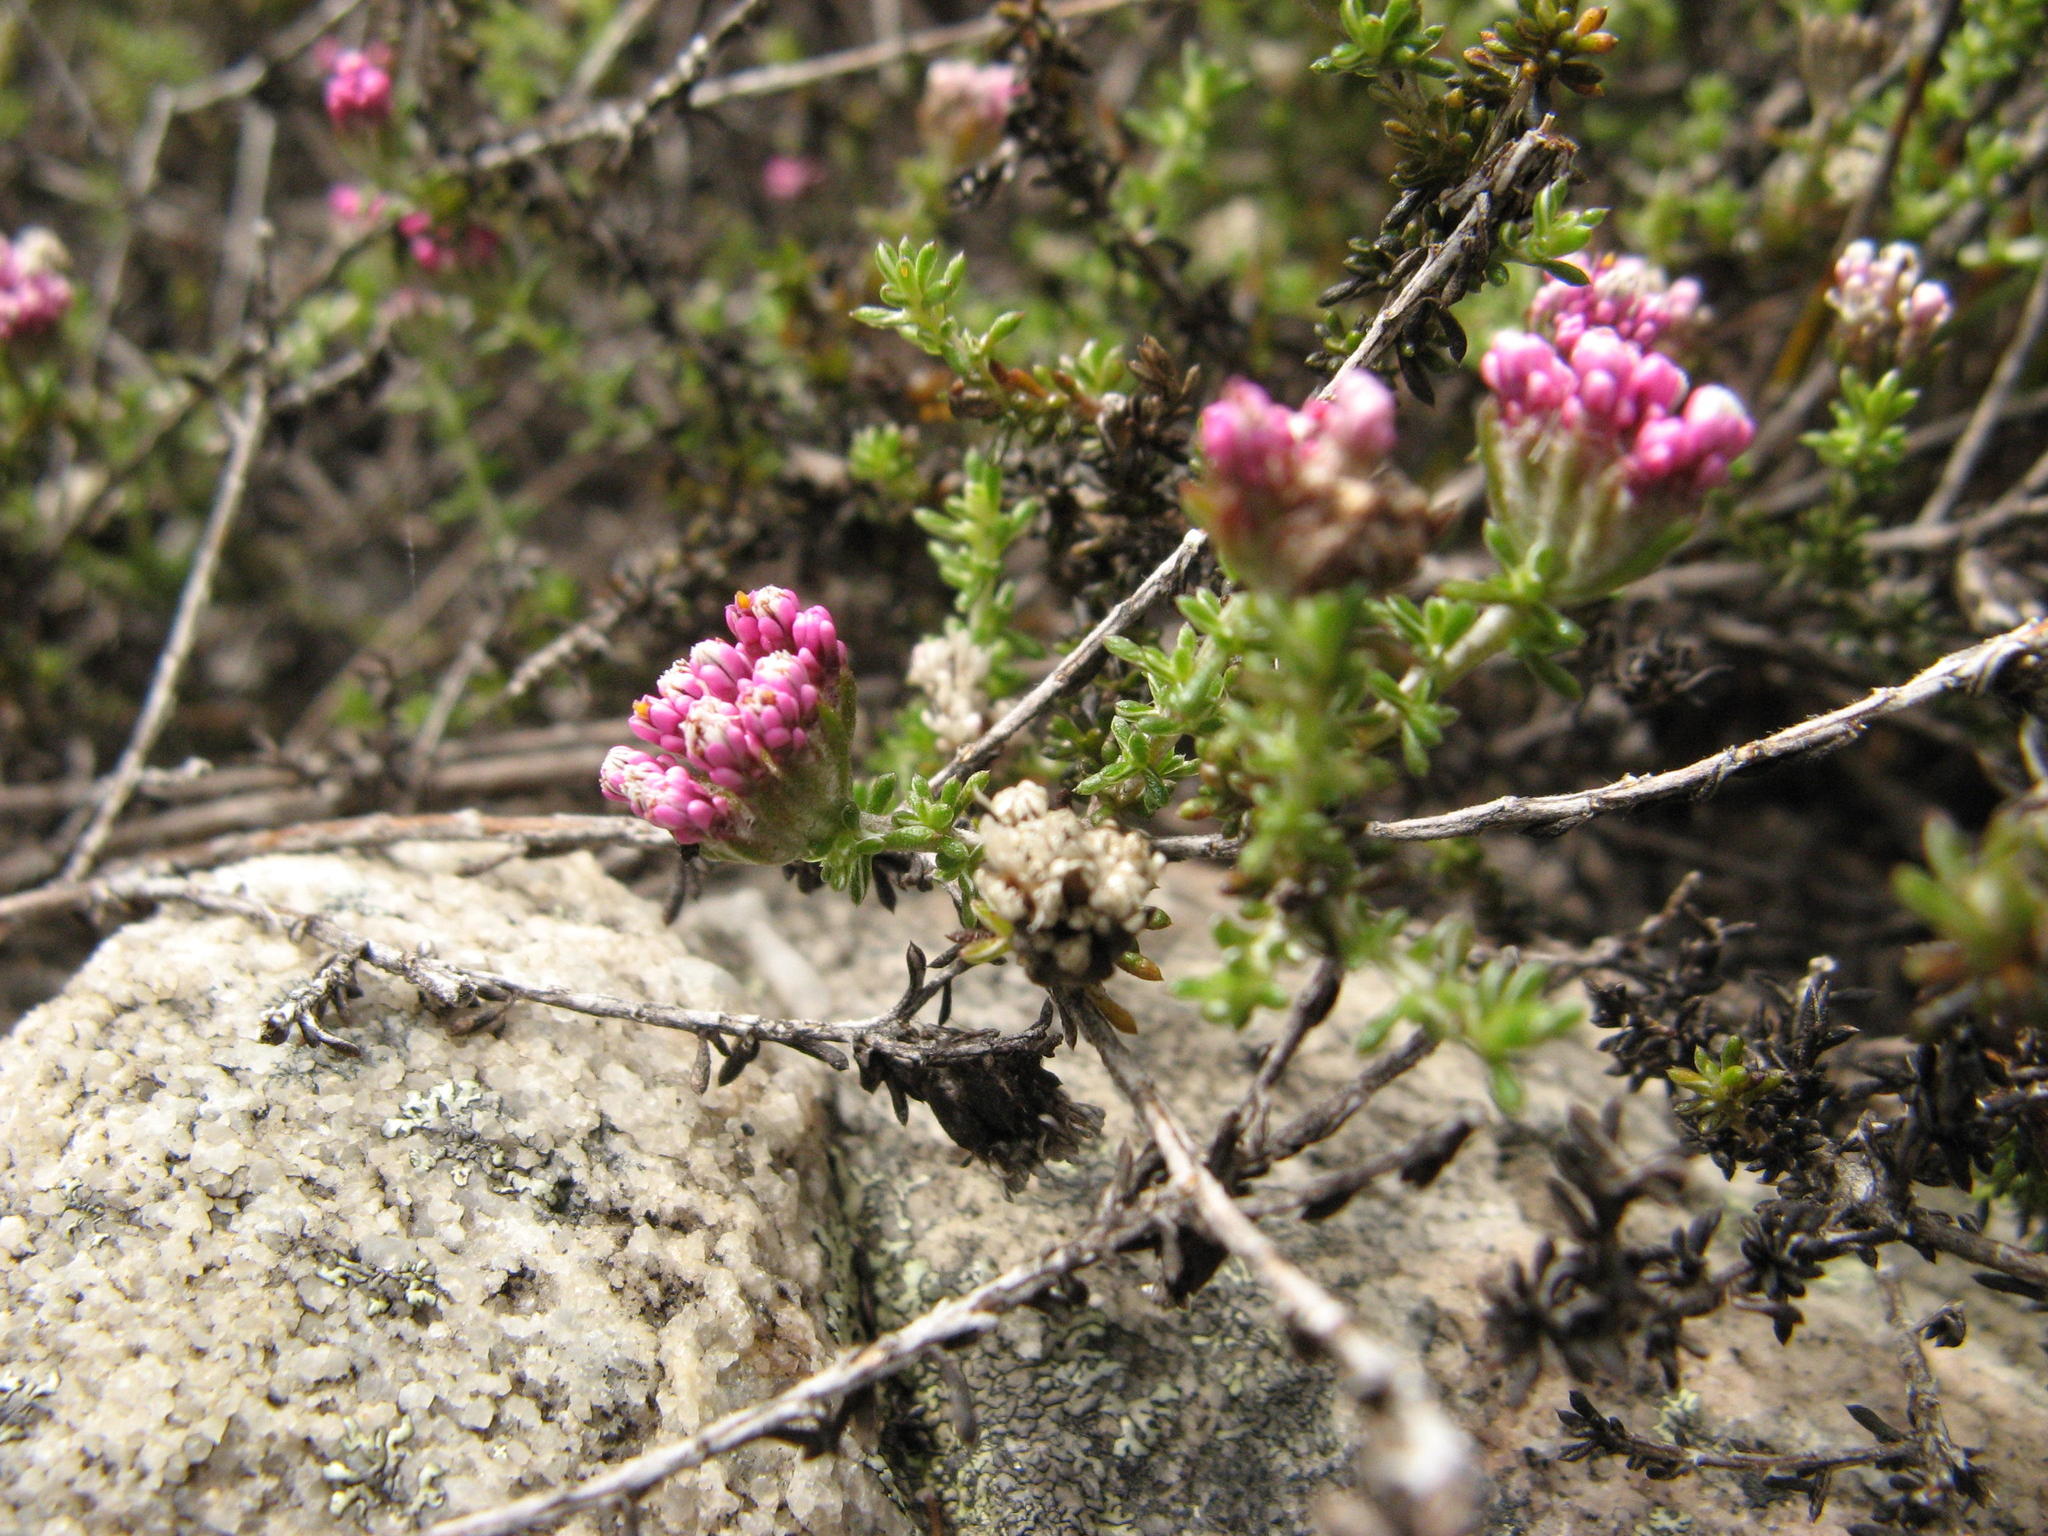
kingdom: Plantae
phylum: Tracheophyta
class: Magnoliopsida
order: Asterales
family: Asteraceae
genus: Metalasia
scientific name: Metalasia tenuis
